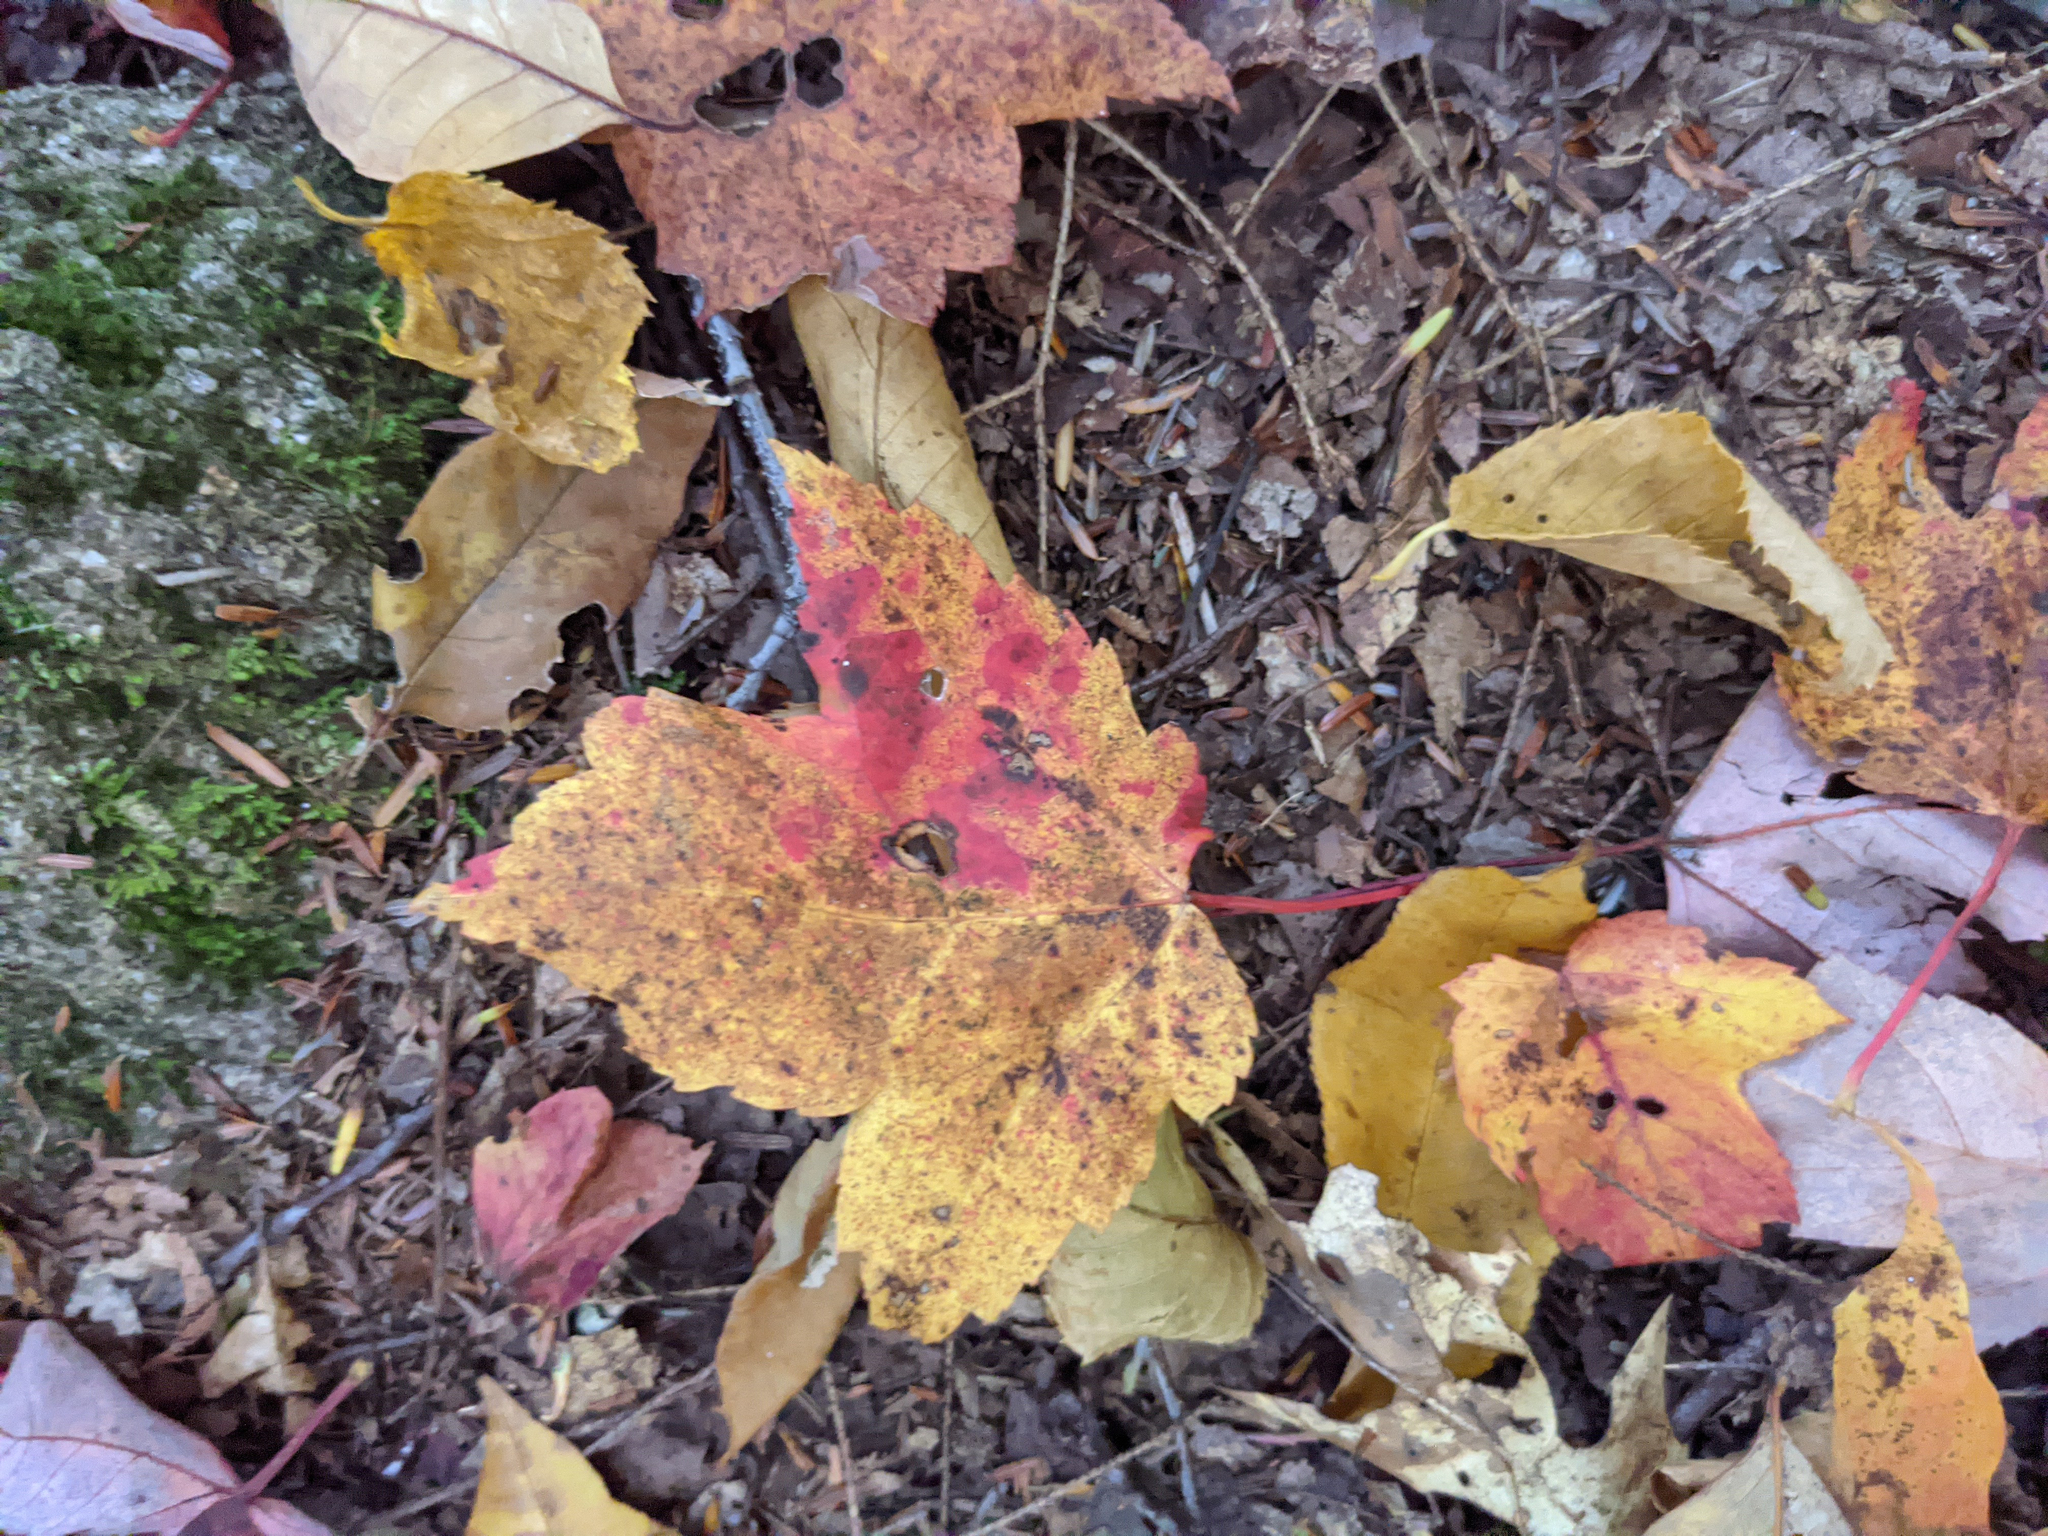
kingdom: Plantae
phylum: Tracheophyta
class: Magnoliopsida
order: Sapindales
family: Sapindaceae
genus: Acer
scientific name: Acer rubrum
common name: Red maple
